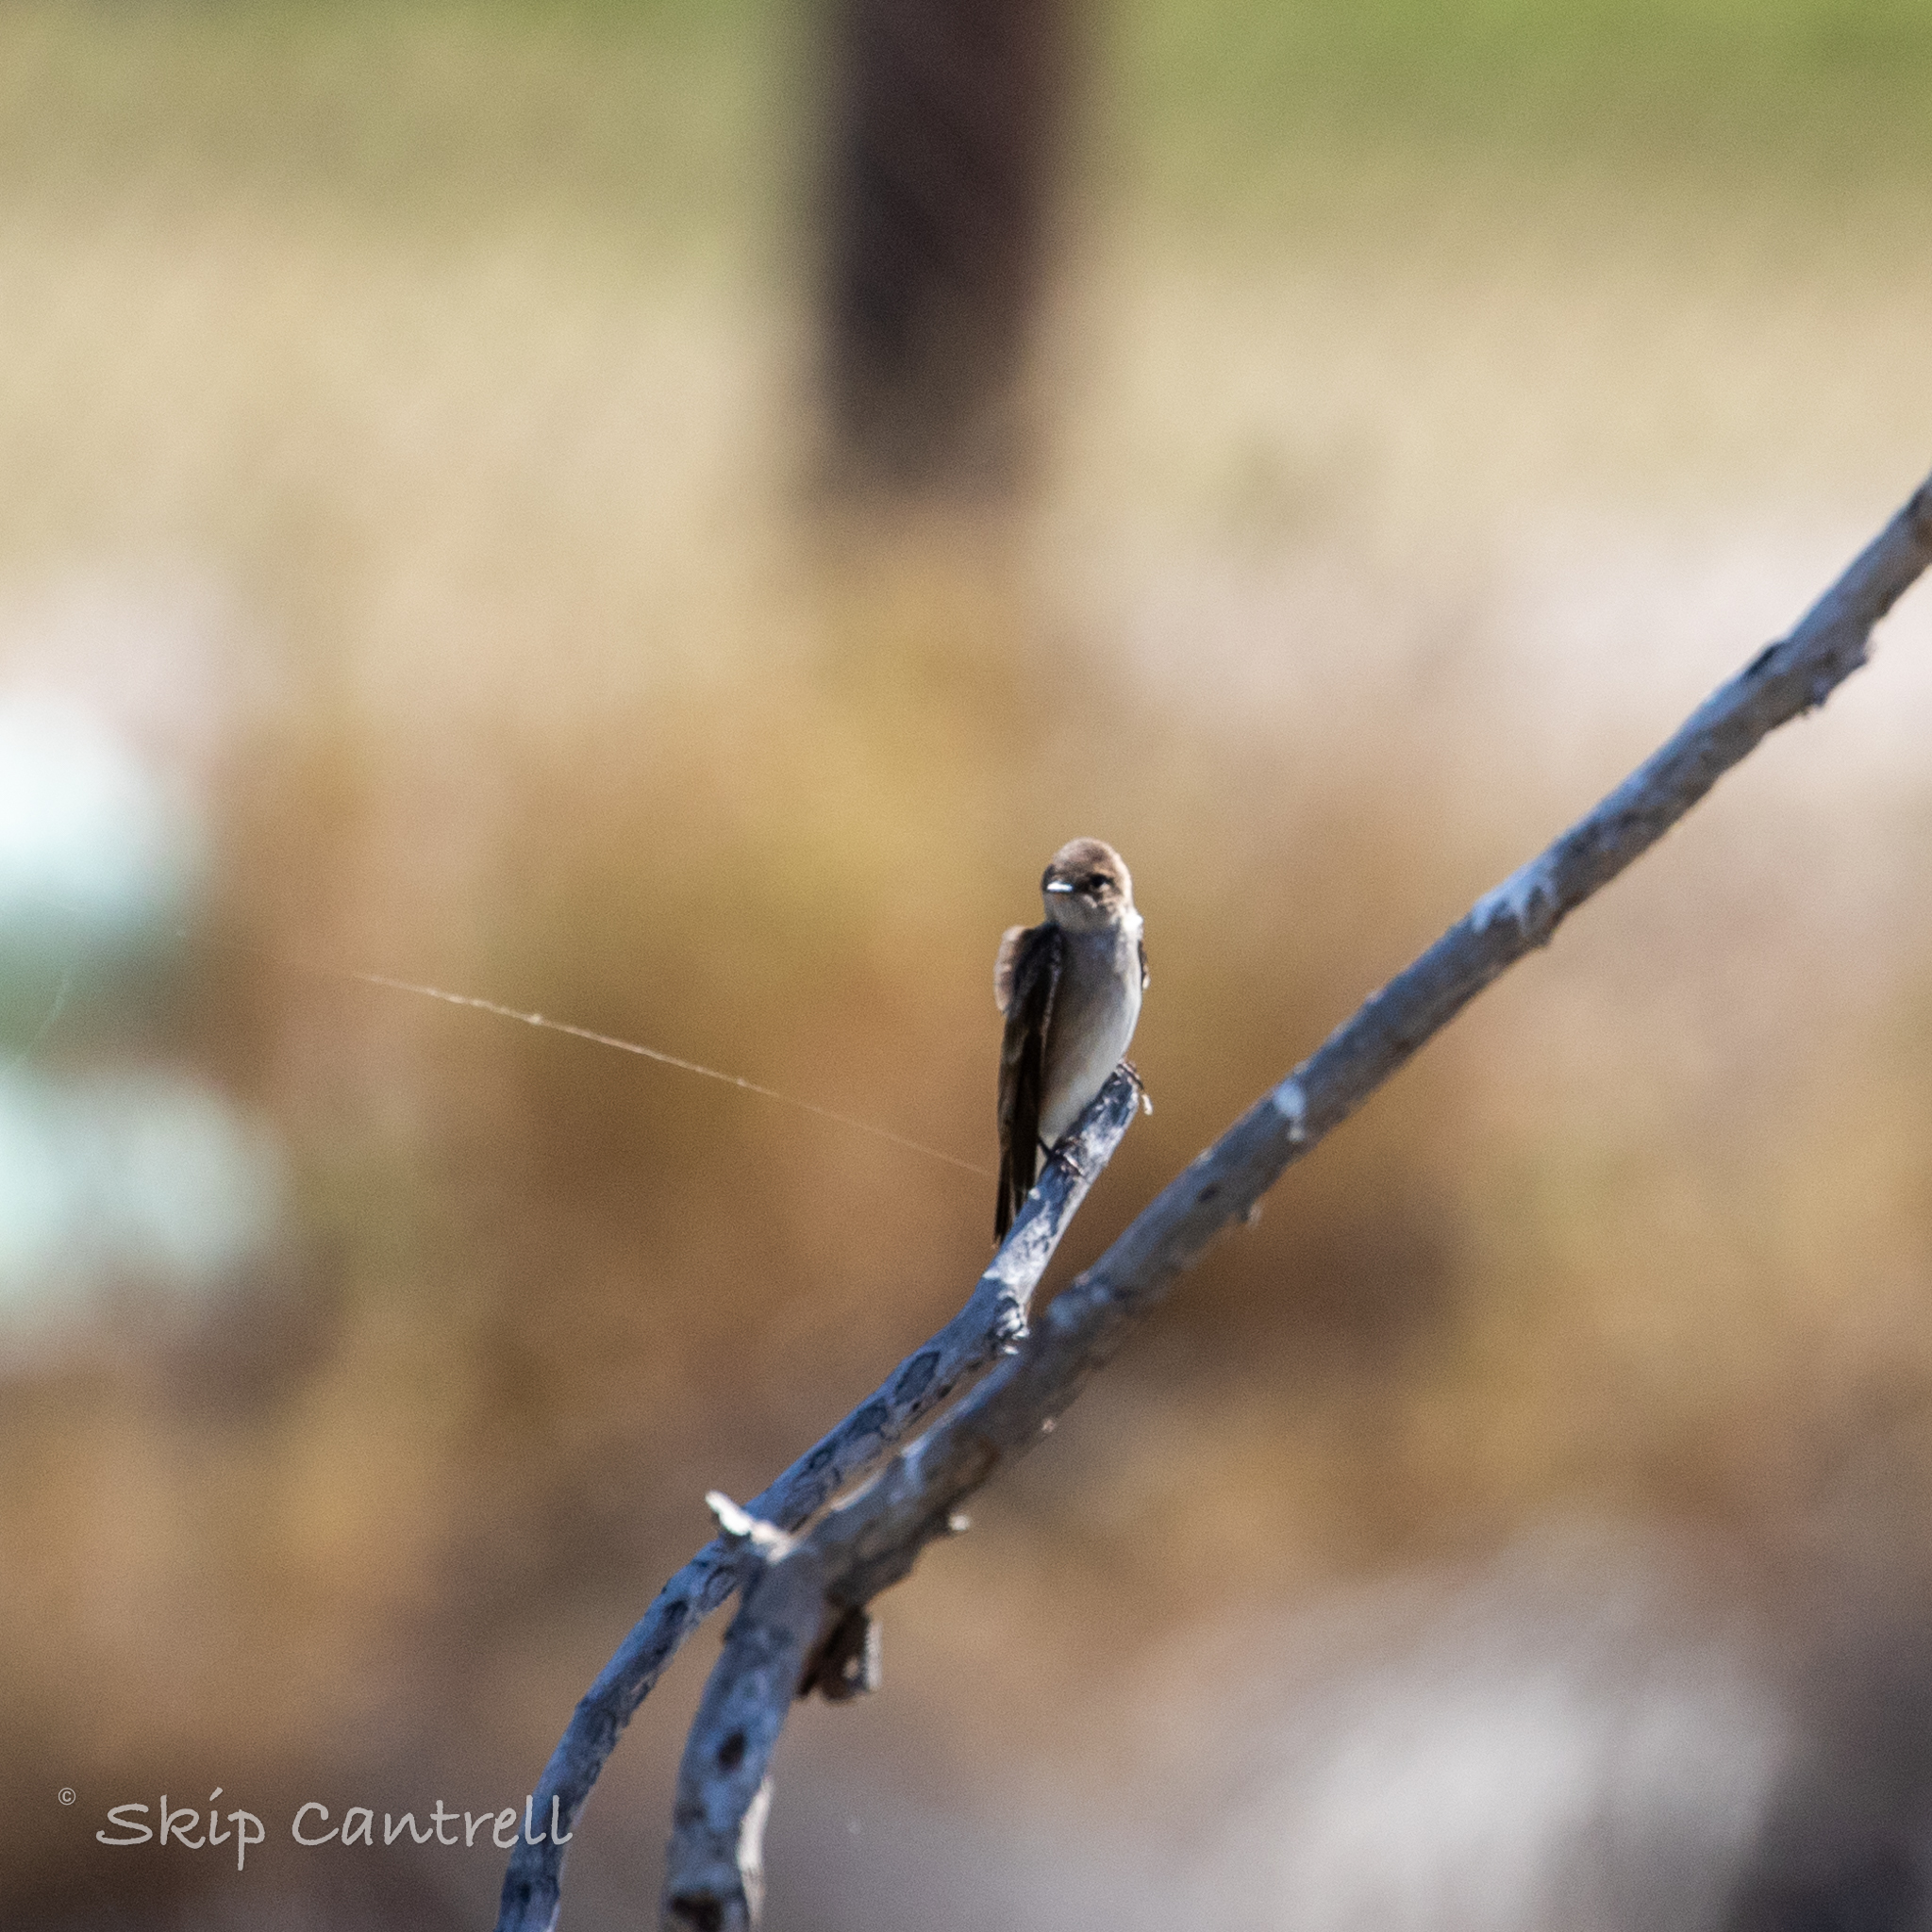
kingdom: Animalia
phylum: Chordata
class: Aves
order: Passeriformes
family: Hirundinidae
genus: Stelgidopteryx
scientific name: Stelgidopteryx serripennis
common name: Northern rough-winged swallow
